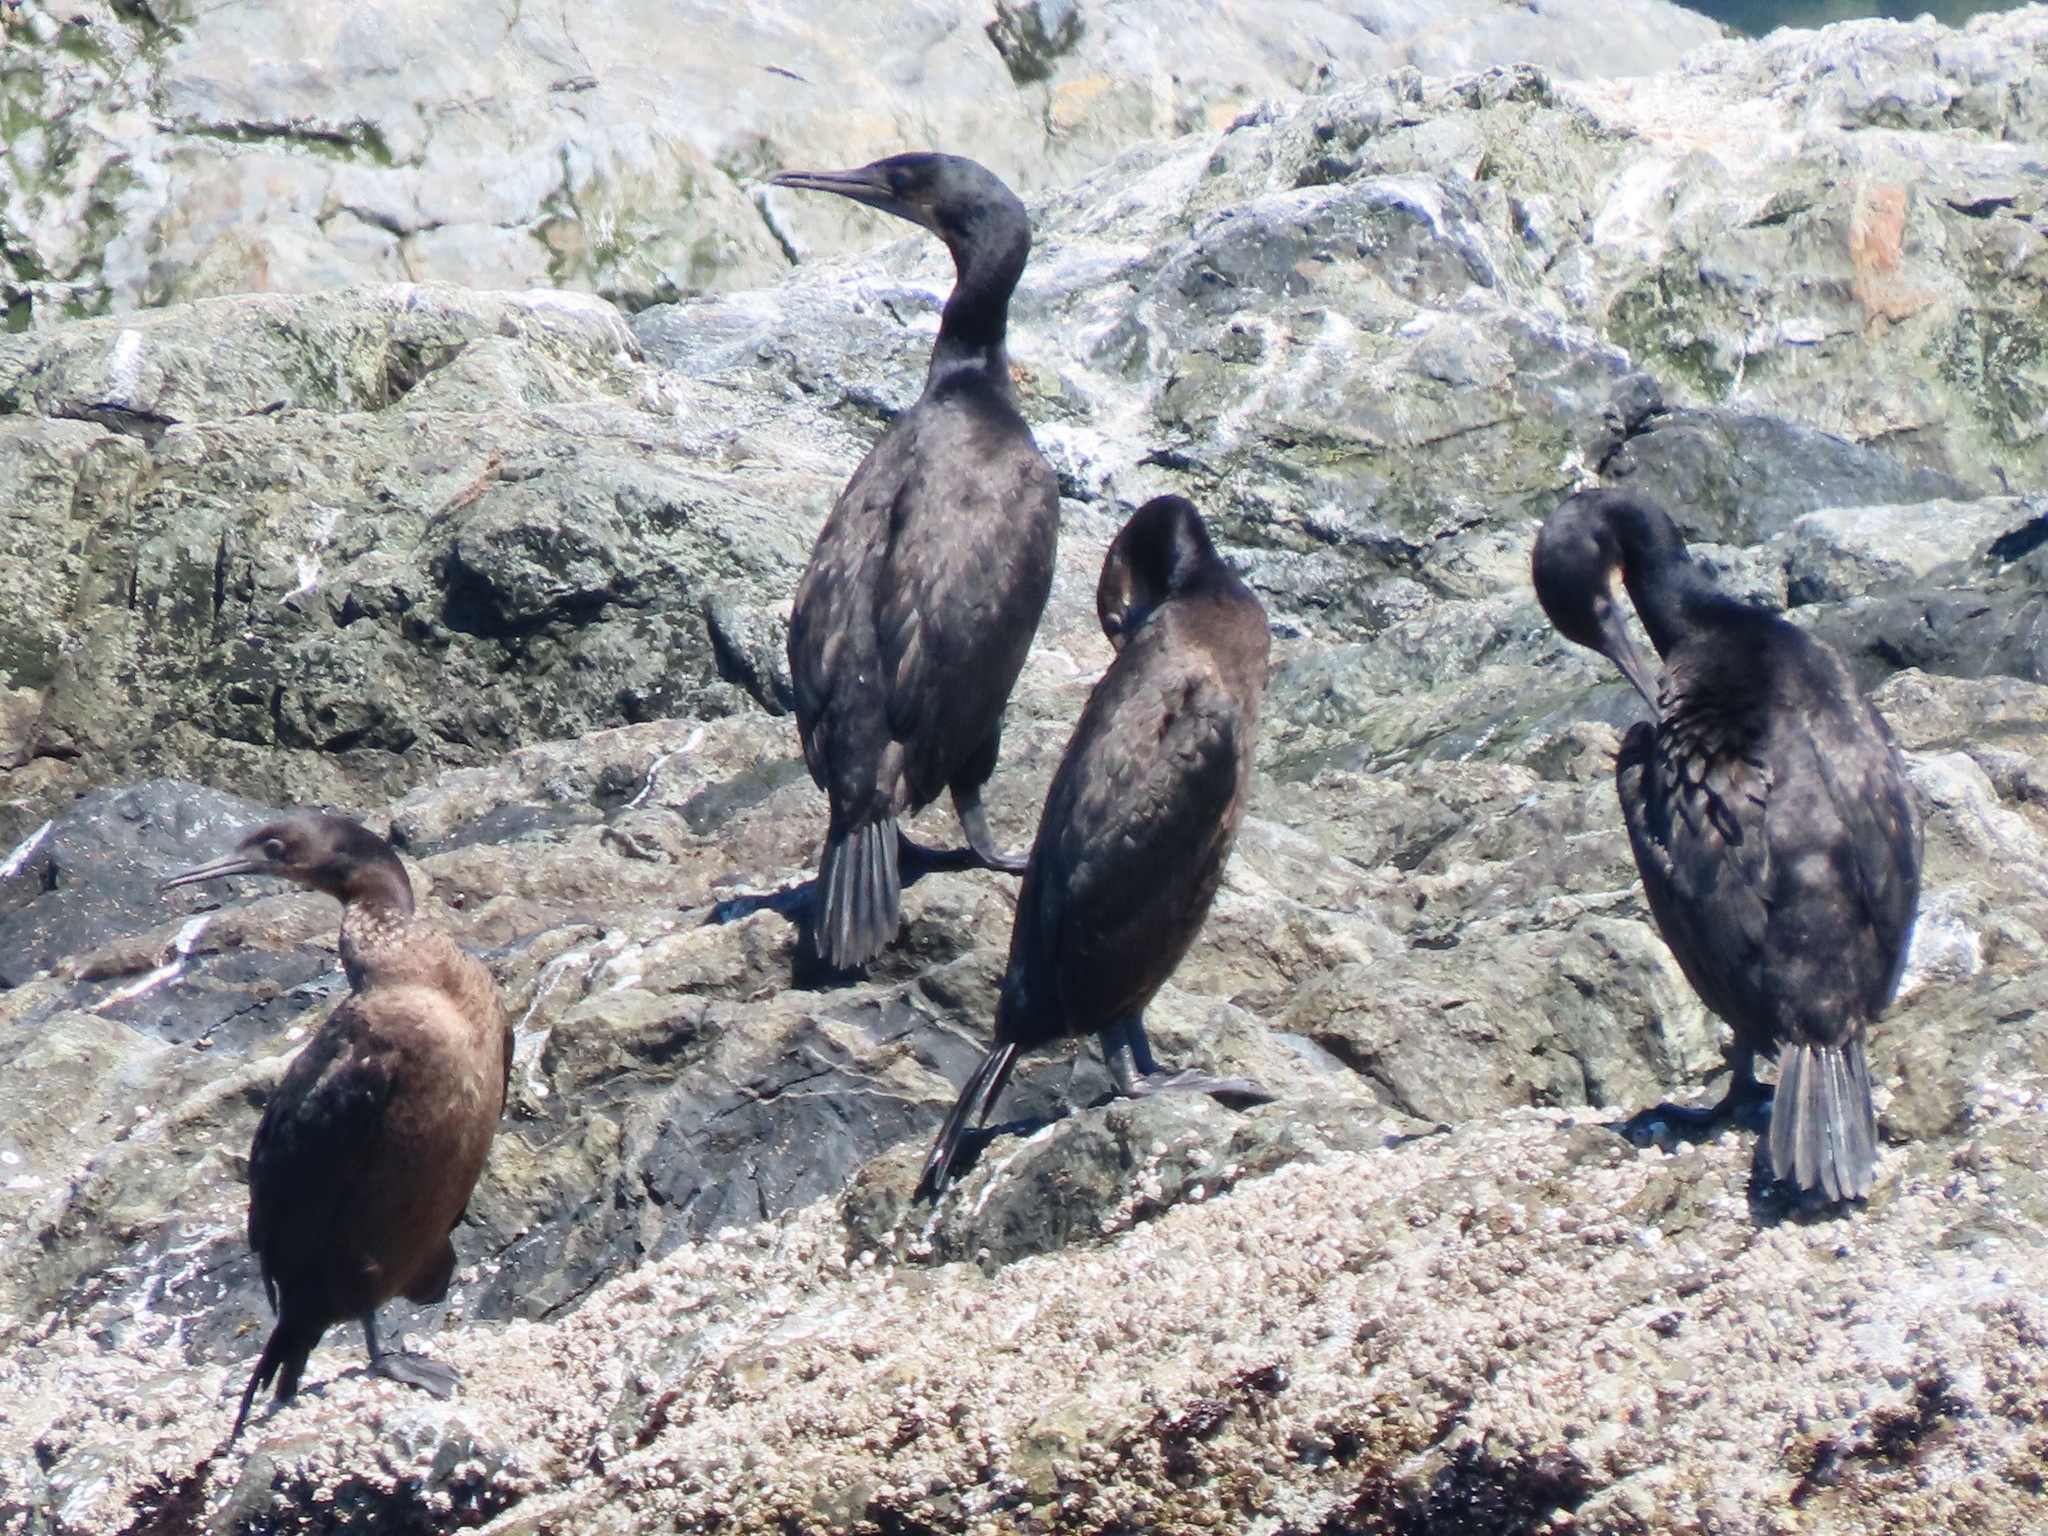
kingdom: Animalia
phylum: Chordata
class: Aves
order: Suliformes
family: Phalacrocoracidae
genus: Urile
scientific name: Urile penicillatus
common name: Brandt's cormorant
